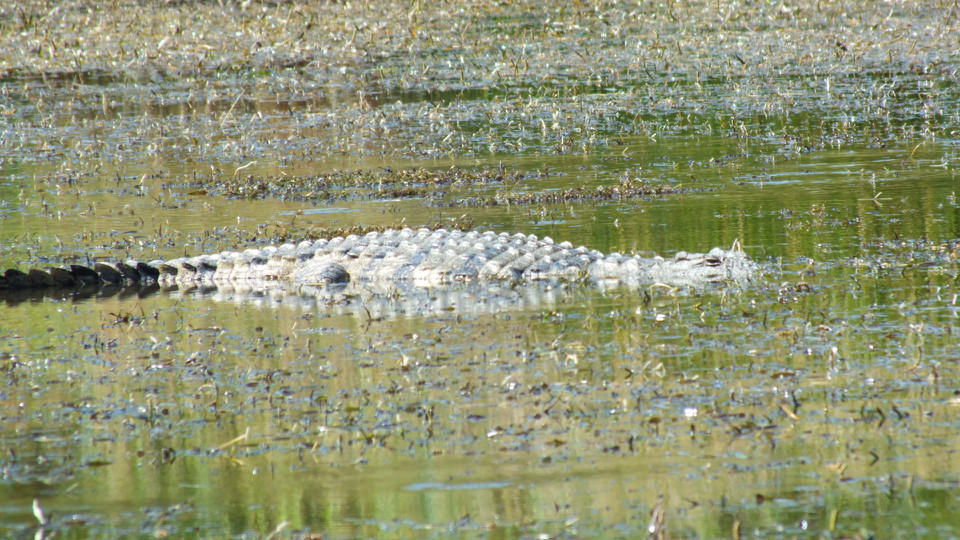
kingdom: Animalia
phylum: Chordata
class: Crocodylia
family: Crocodylidae
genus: Crocodylus
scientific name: Crocodylus niloticus
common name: Nile crocodile
